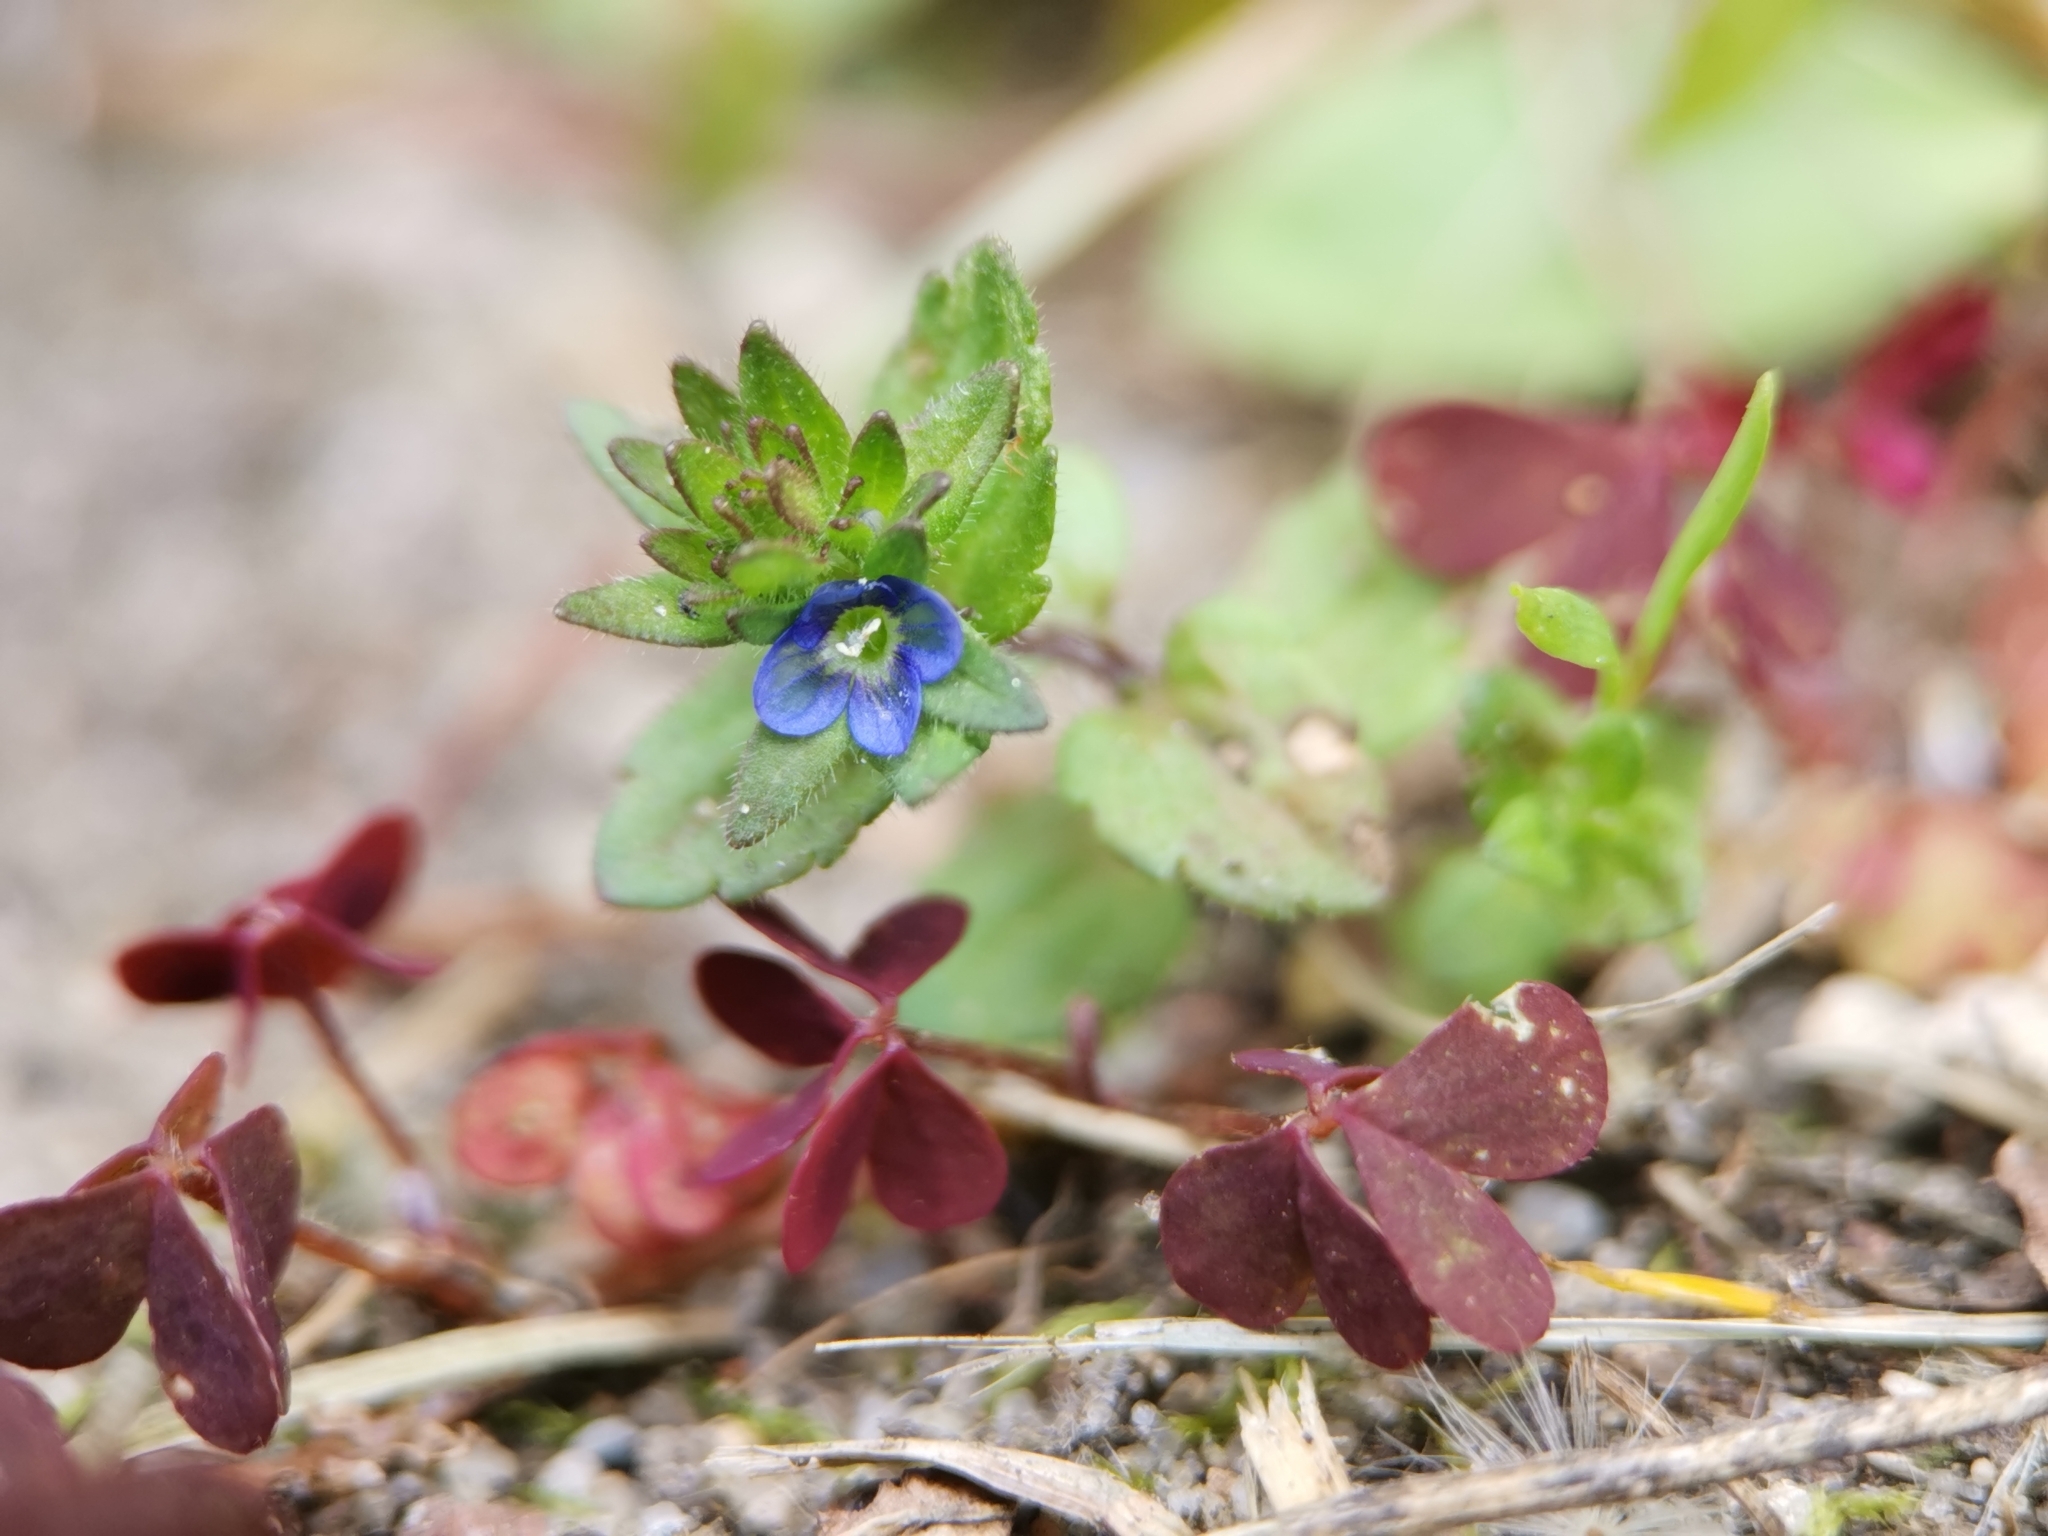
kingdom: Plantae
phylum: Tracheophyta
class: Magnoliopsida
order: Lamiales
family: Plantaginaceae
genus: Veronica
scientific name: Veronica arvensis
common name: Corn speedwell
